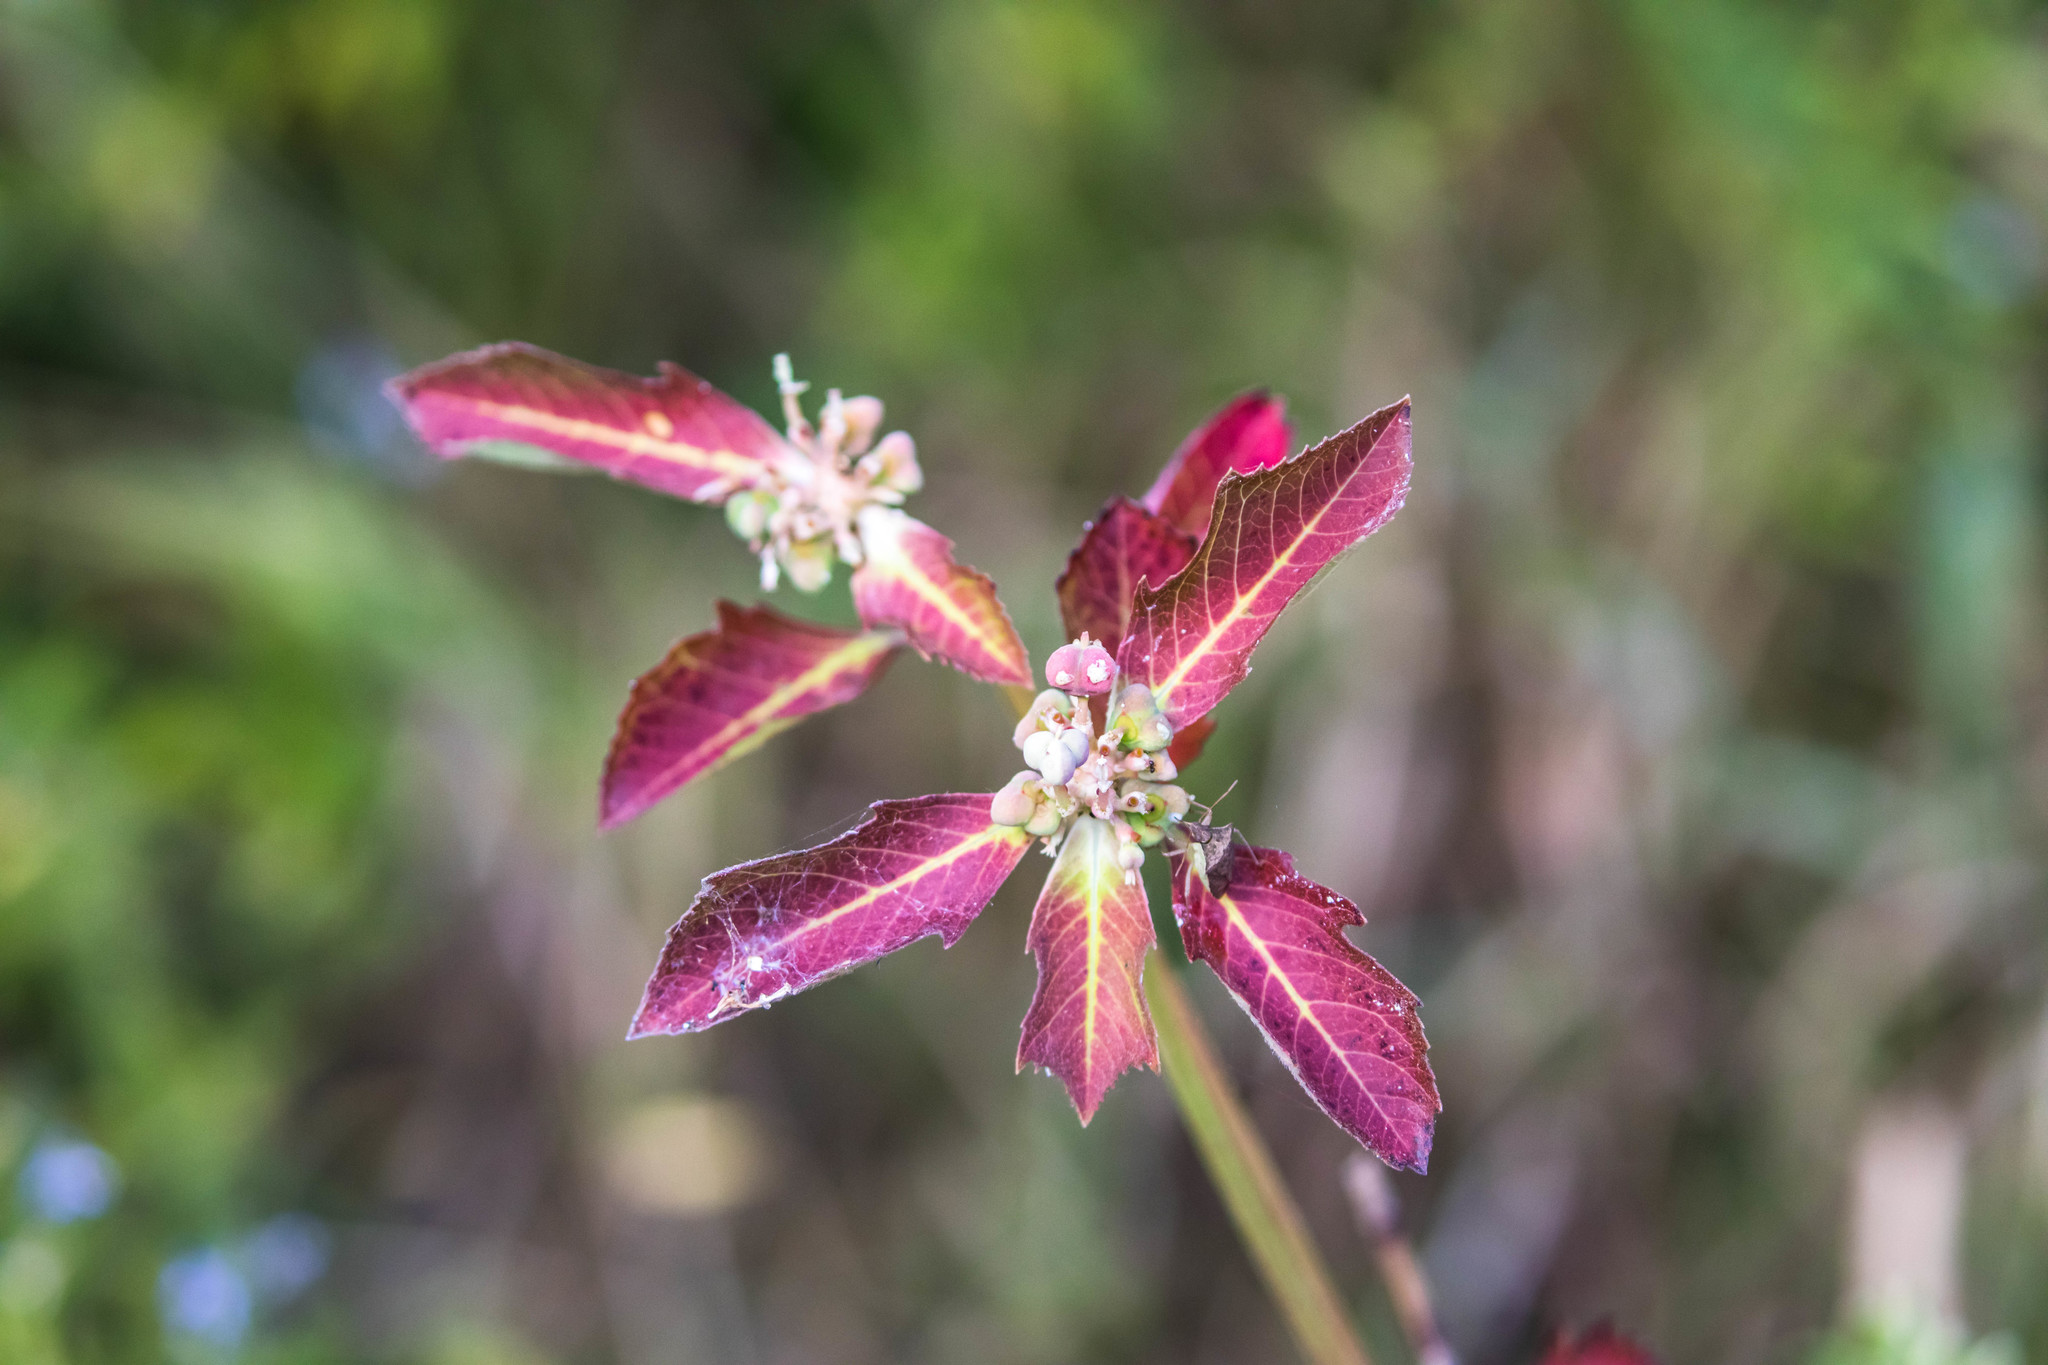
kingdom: Plantae
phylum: Tracheophyta
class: Magnoliopsida
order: Malpighiales
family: Euphorbiaceae
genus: Euphorbia
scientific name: Euphorbia heterophylla
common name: Mexican fireplant
